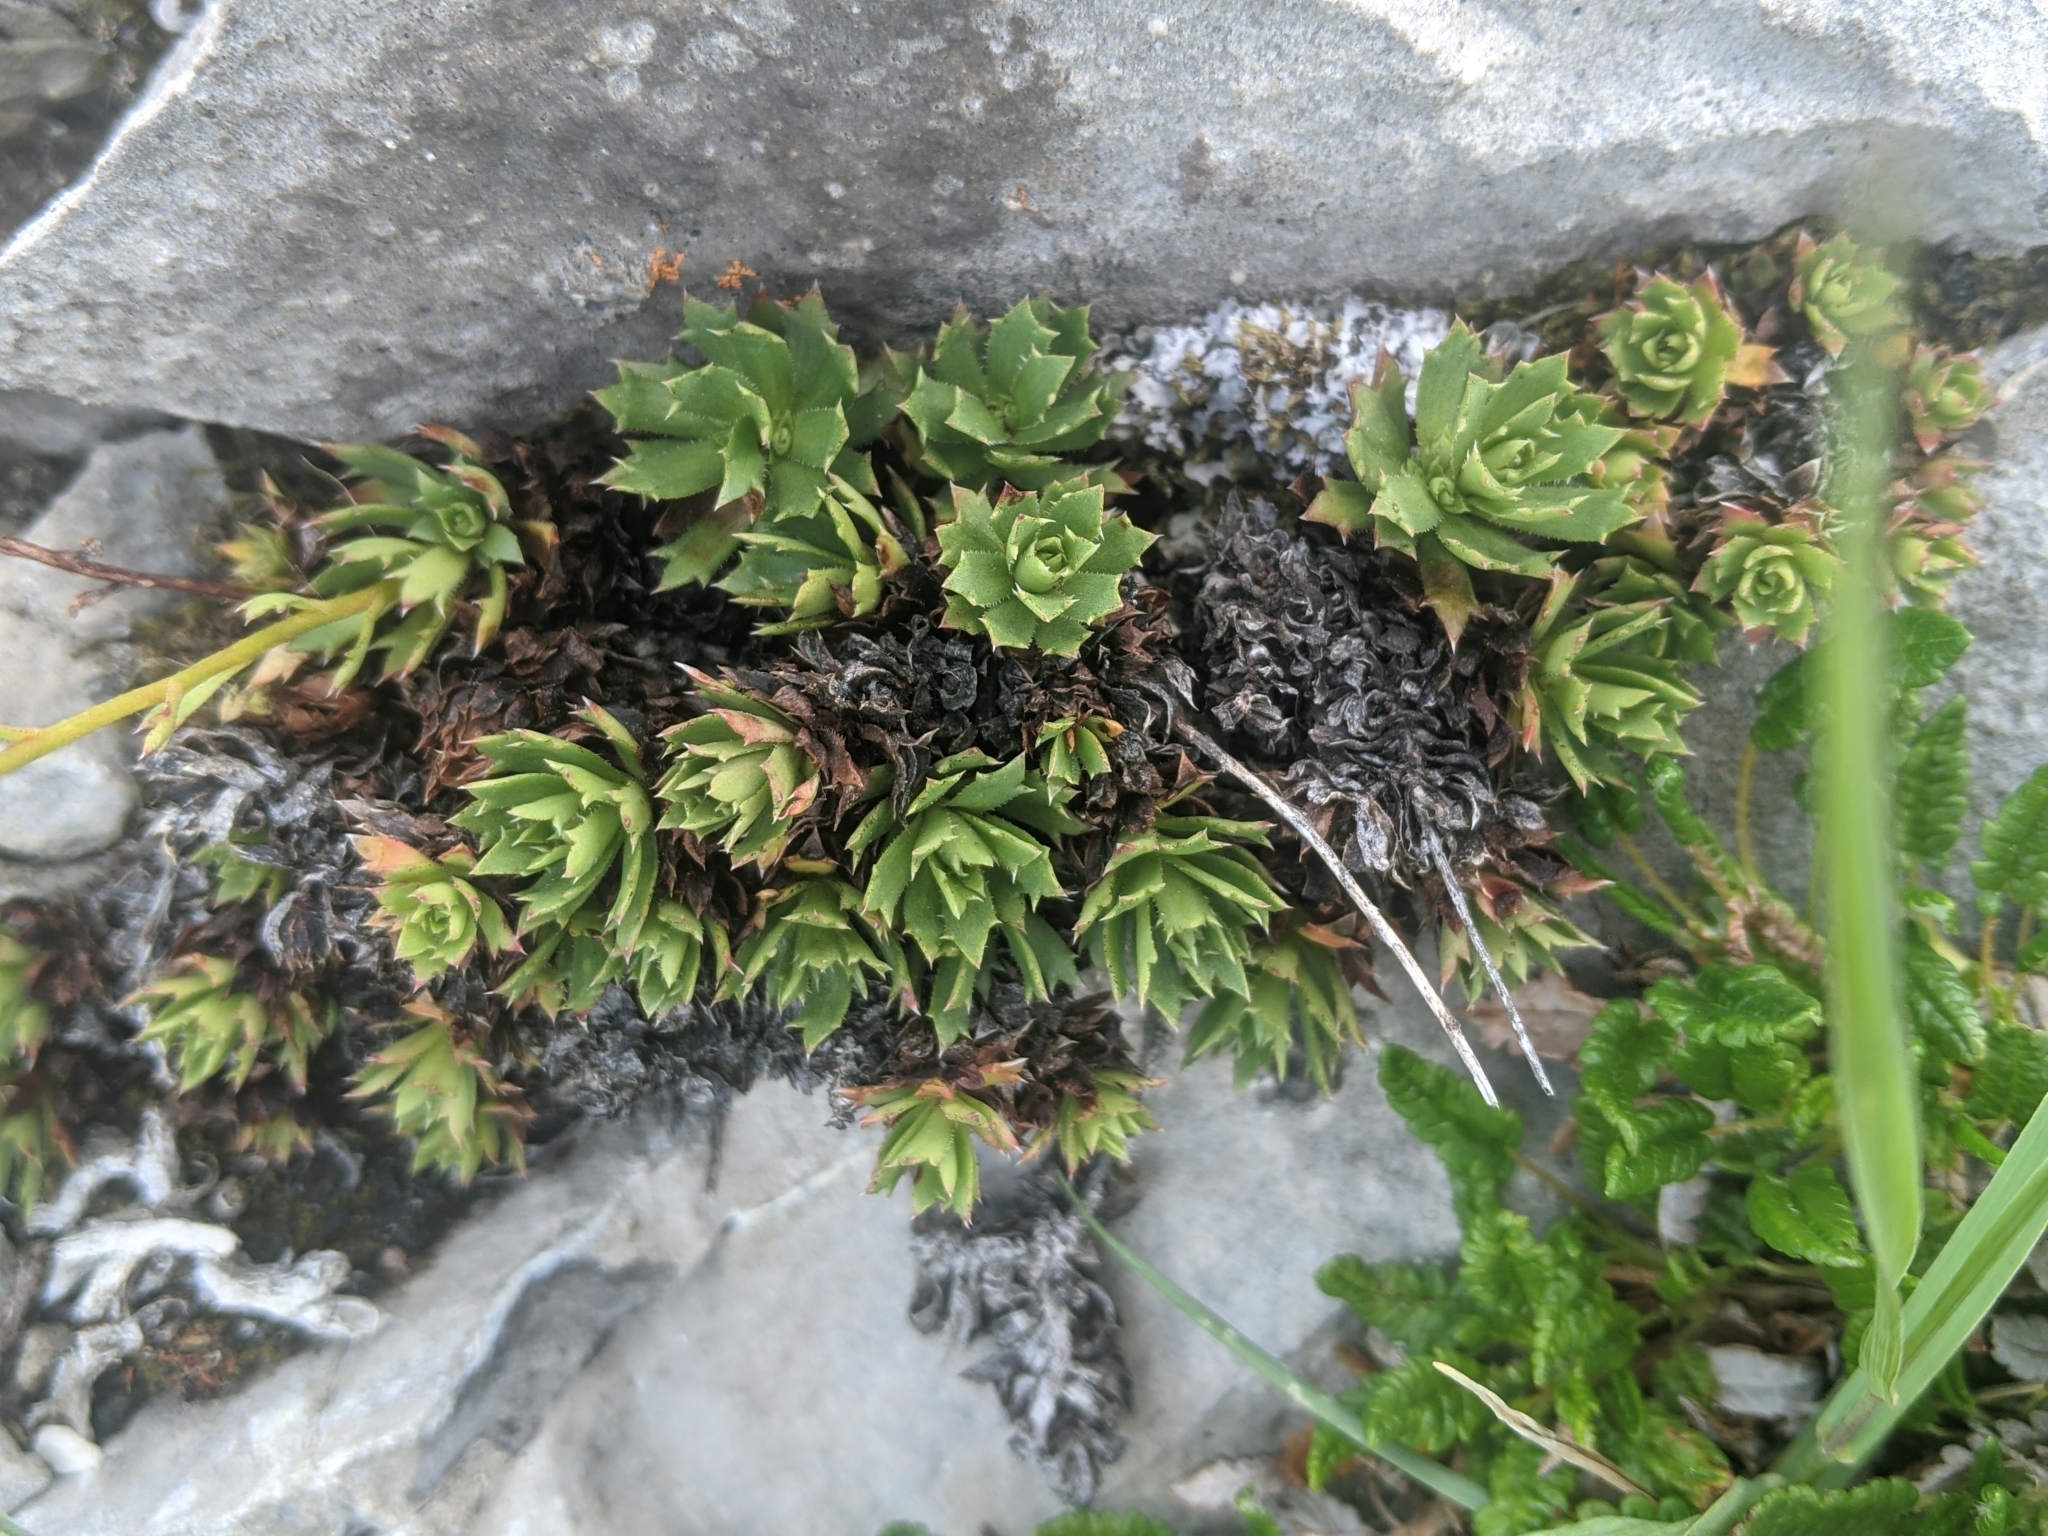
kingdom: Plantae
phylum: Tracheophyta
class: Magnoliopsida
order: Saxifragales
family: Saxifragaceae
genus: Saxifraga
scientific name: Saxifraga tricuspidata
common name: Prickly saxifrage
